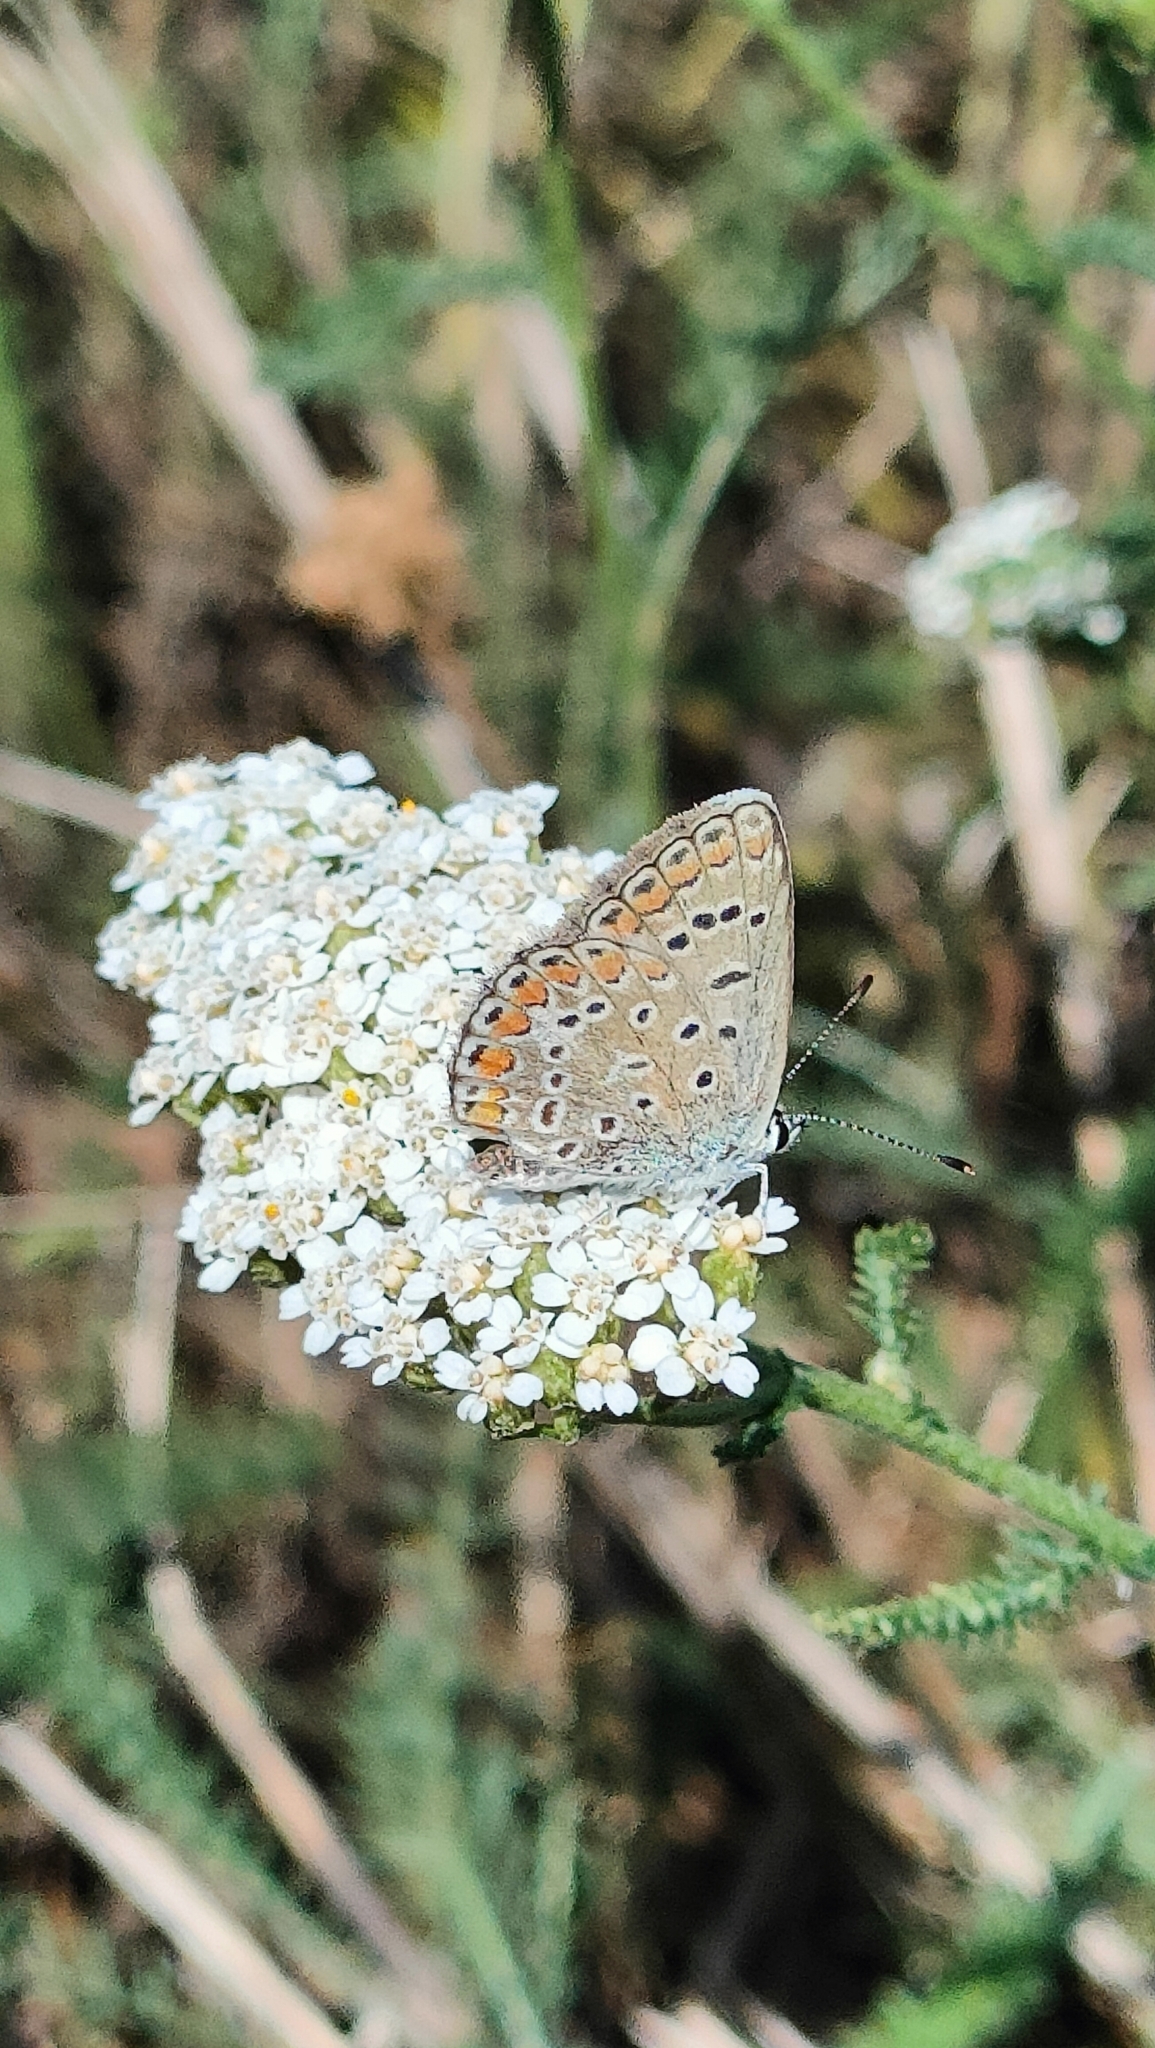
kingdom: Animalia
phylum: Arthropoda
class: Insecta
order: Lepidoptera
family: Lycaenidae
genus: Polyommatus
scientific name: Polyommatus icarus
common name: Common blue
